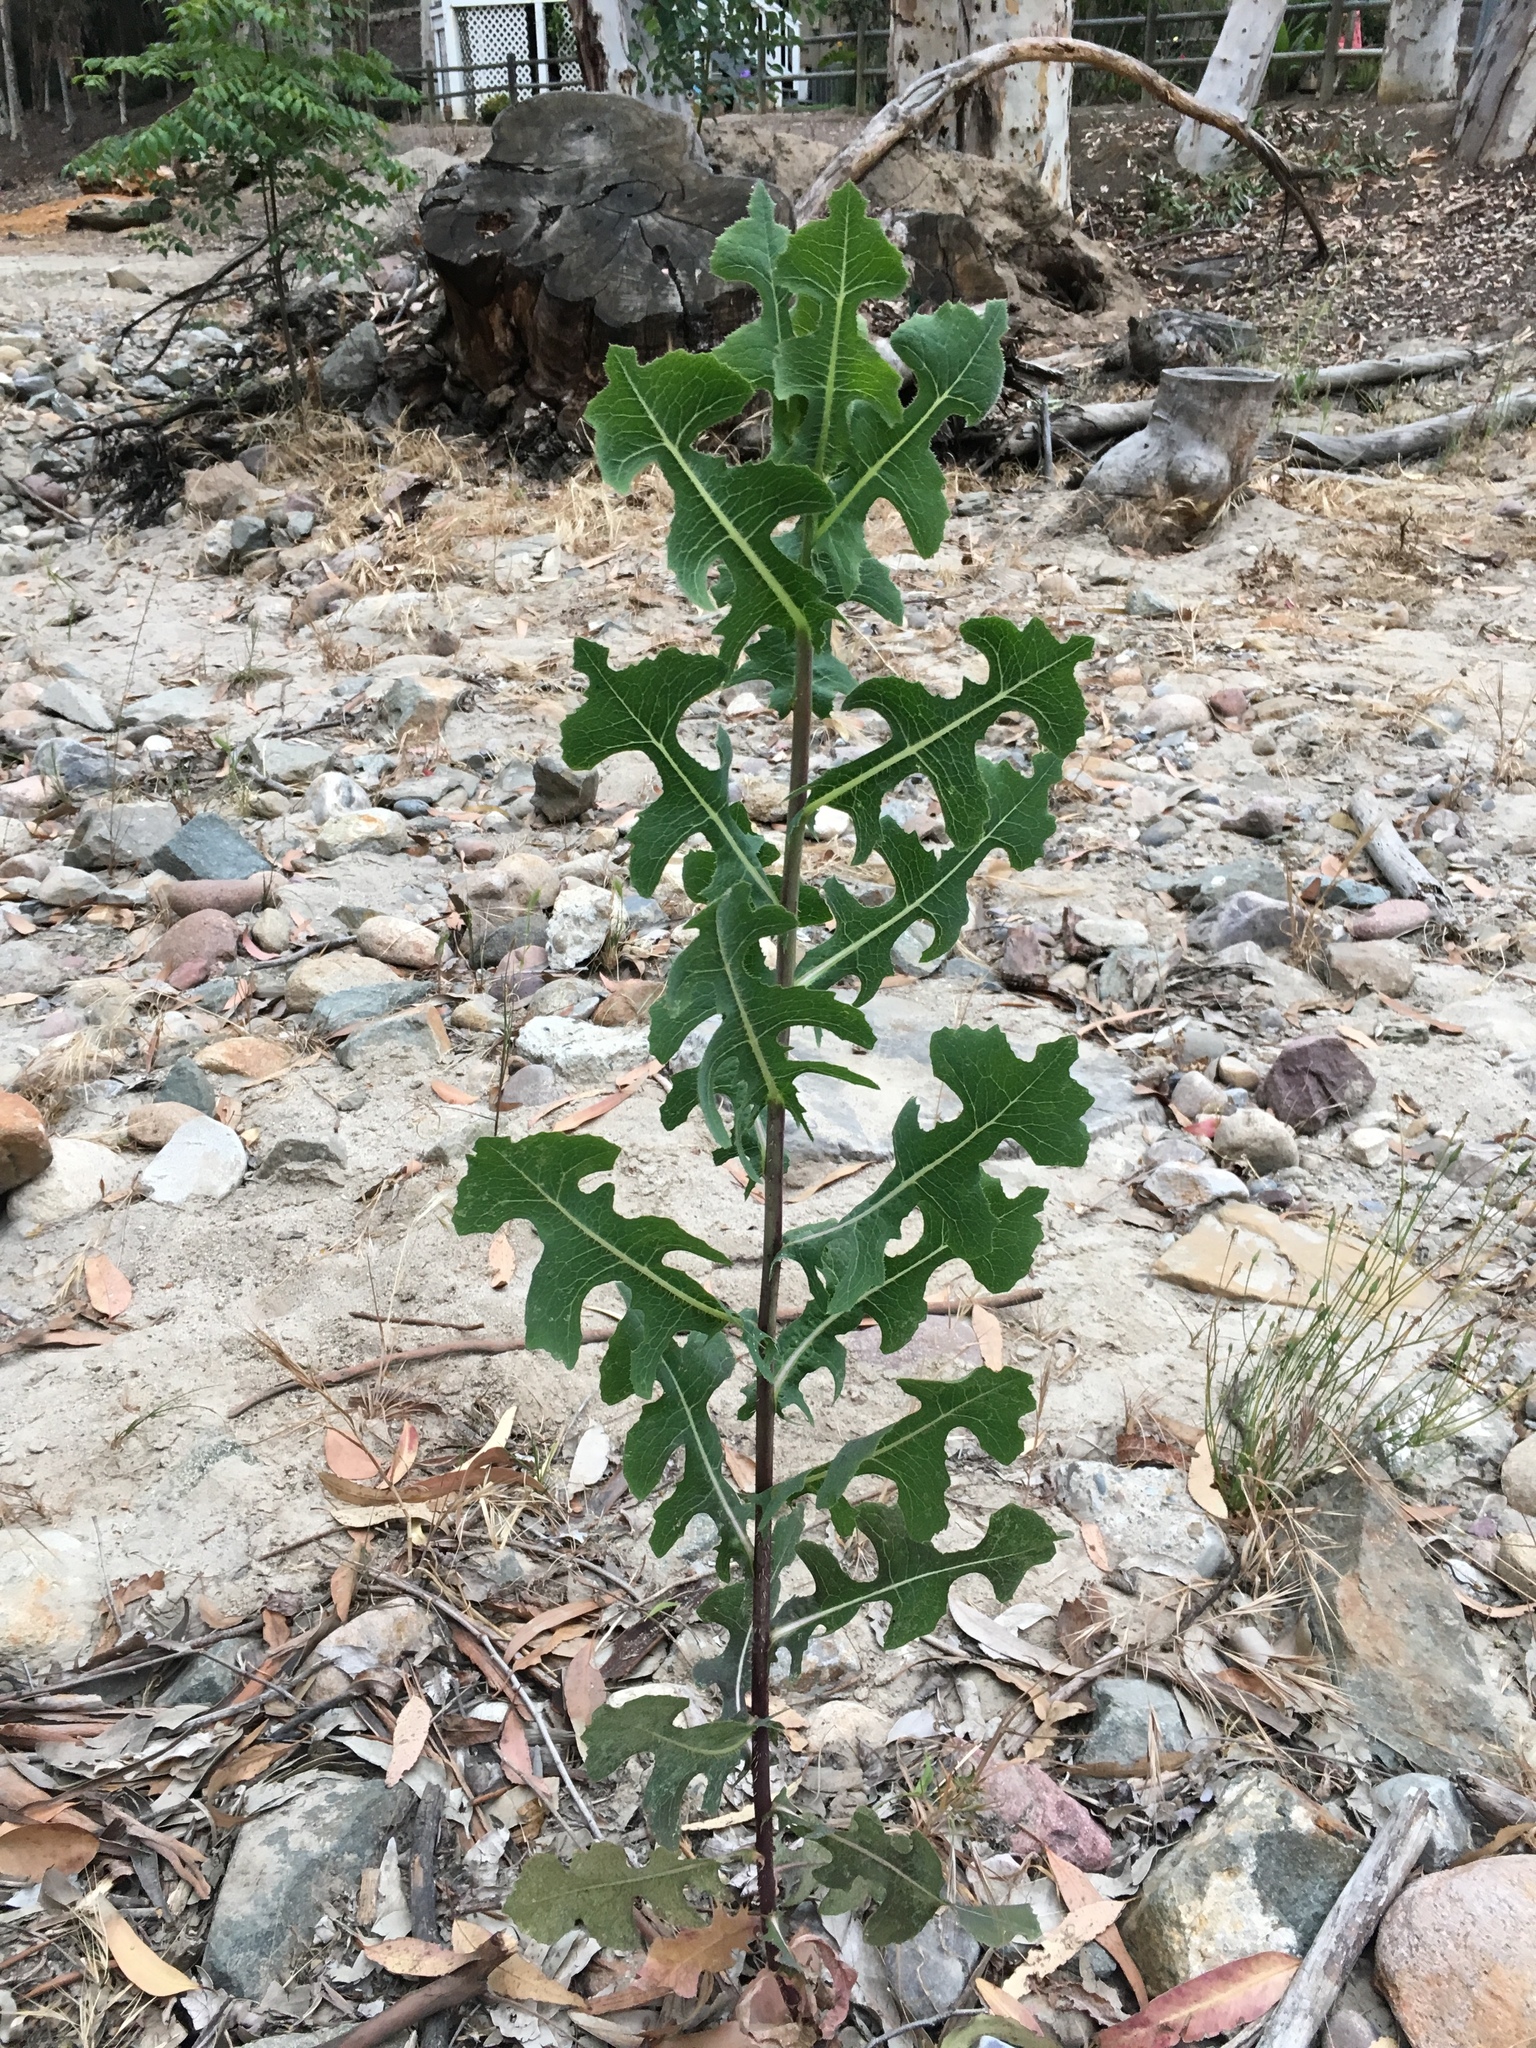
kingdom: Plantae
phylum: Tracheophyta
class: Magnoliopsida
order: Asterales
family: Asteraceae
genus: Lactuca
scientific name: Lactuca serriola
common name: Prickly lettuce
